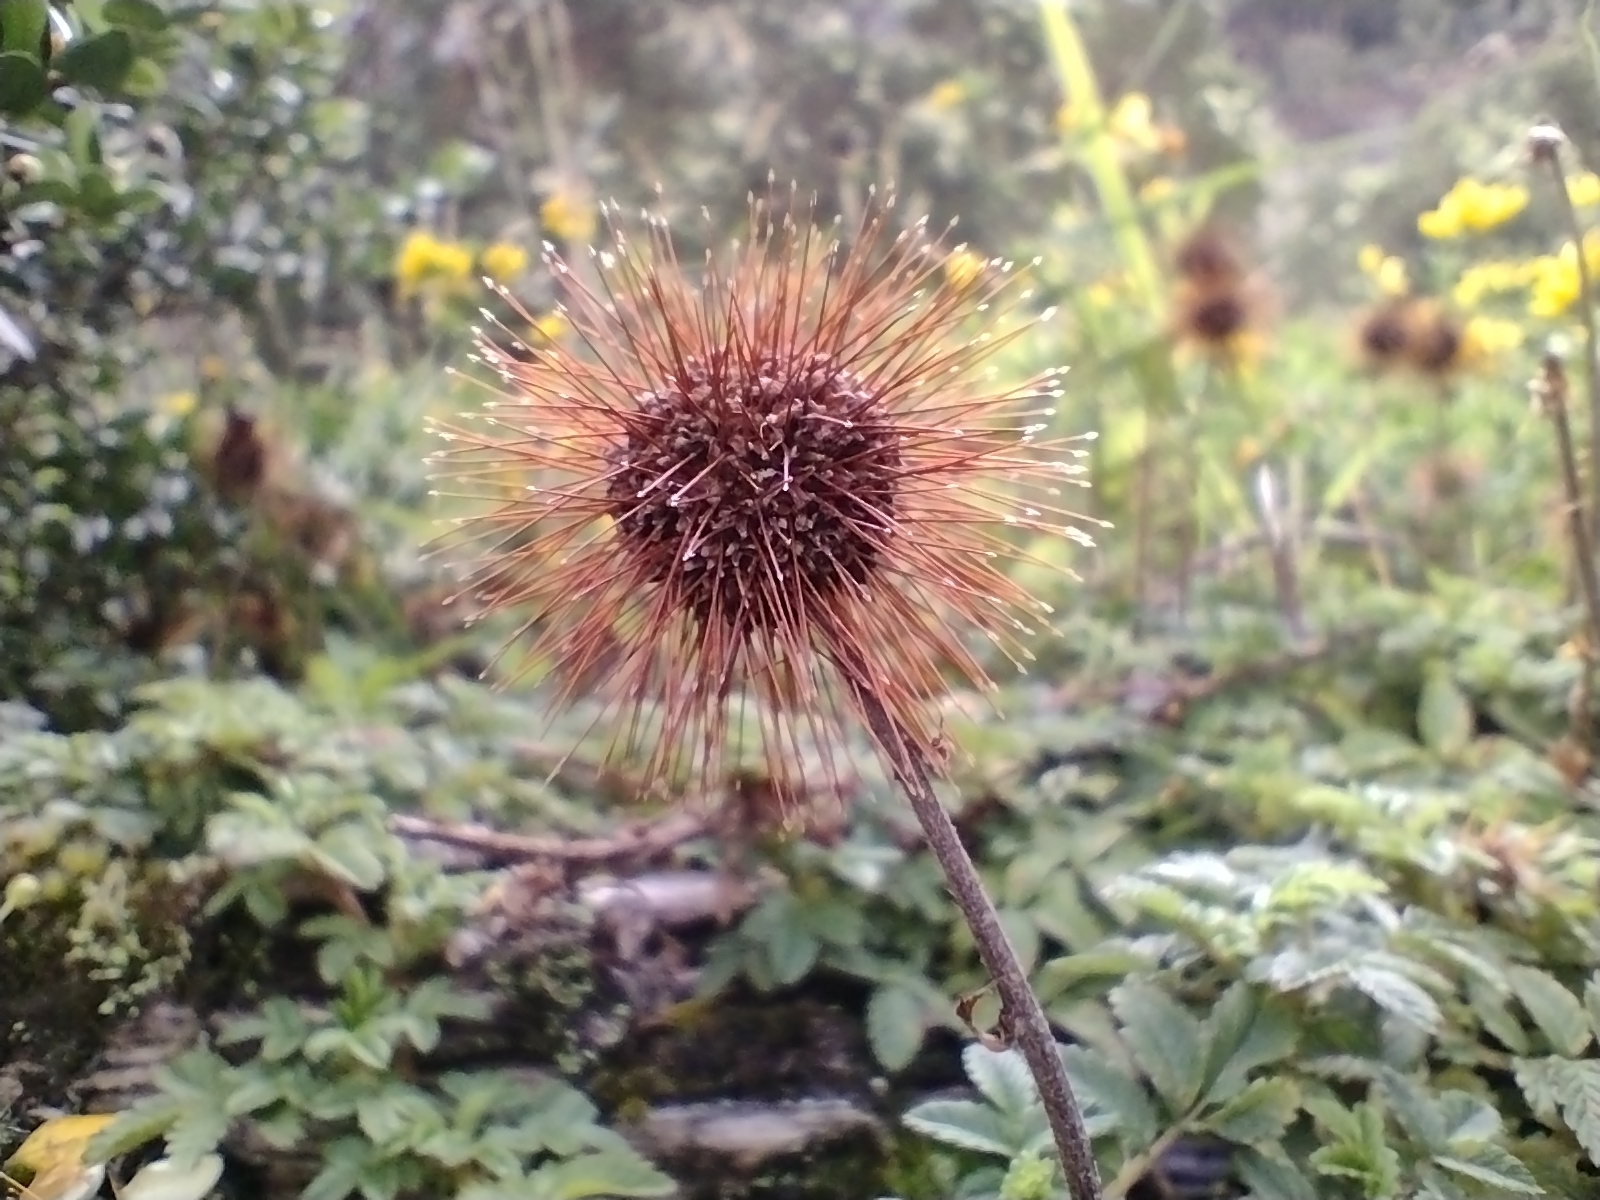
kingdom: Plantae
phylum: Tracheophyta
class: Magnoliopsida
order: Rosales
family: Rosaceae
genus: Acaena
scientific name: Acaena ovalifolia
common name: Two-spined acaena
